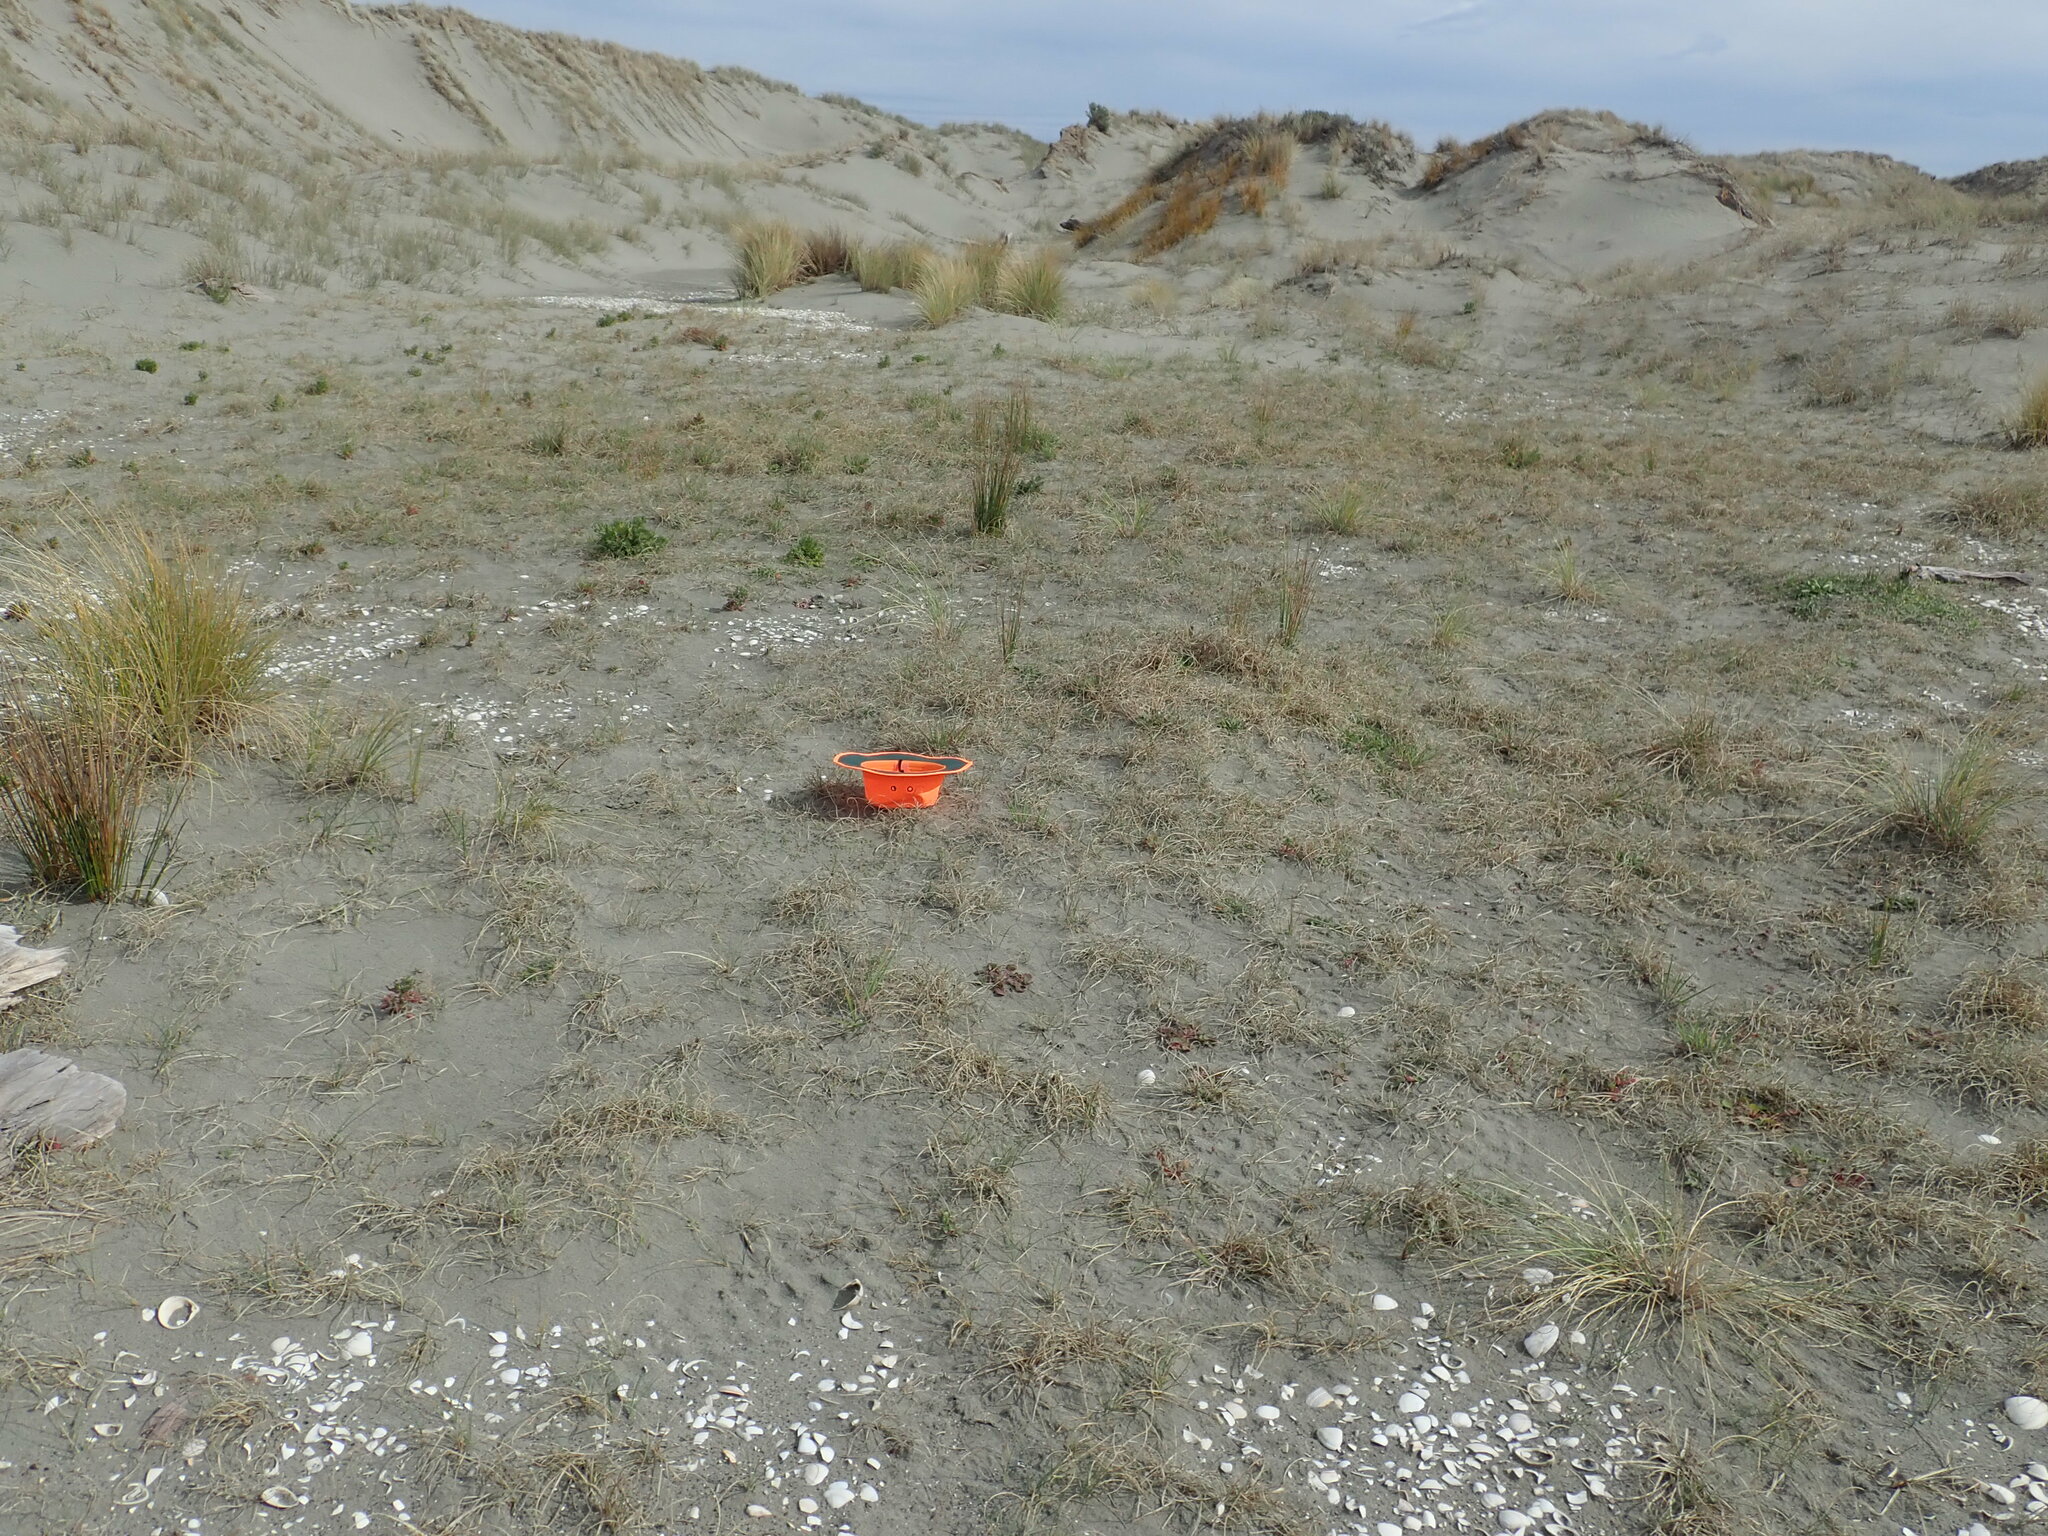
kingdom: Plantae
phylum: Tracheophyta
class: Magnoliopsida
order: Asterales
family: Goodeniaceae
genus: Goodenia
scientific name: Goodenia heenanii
